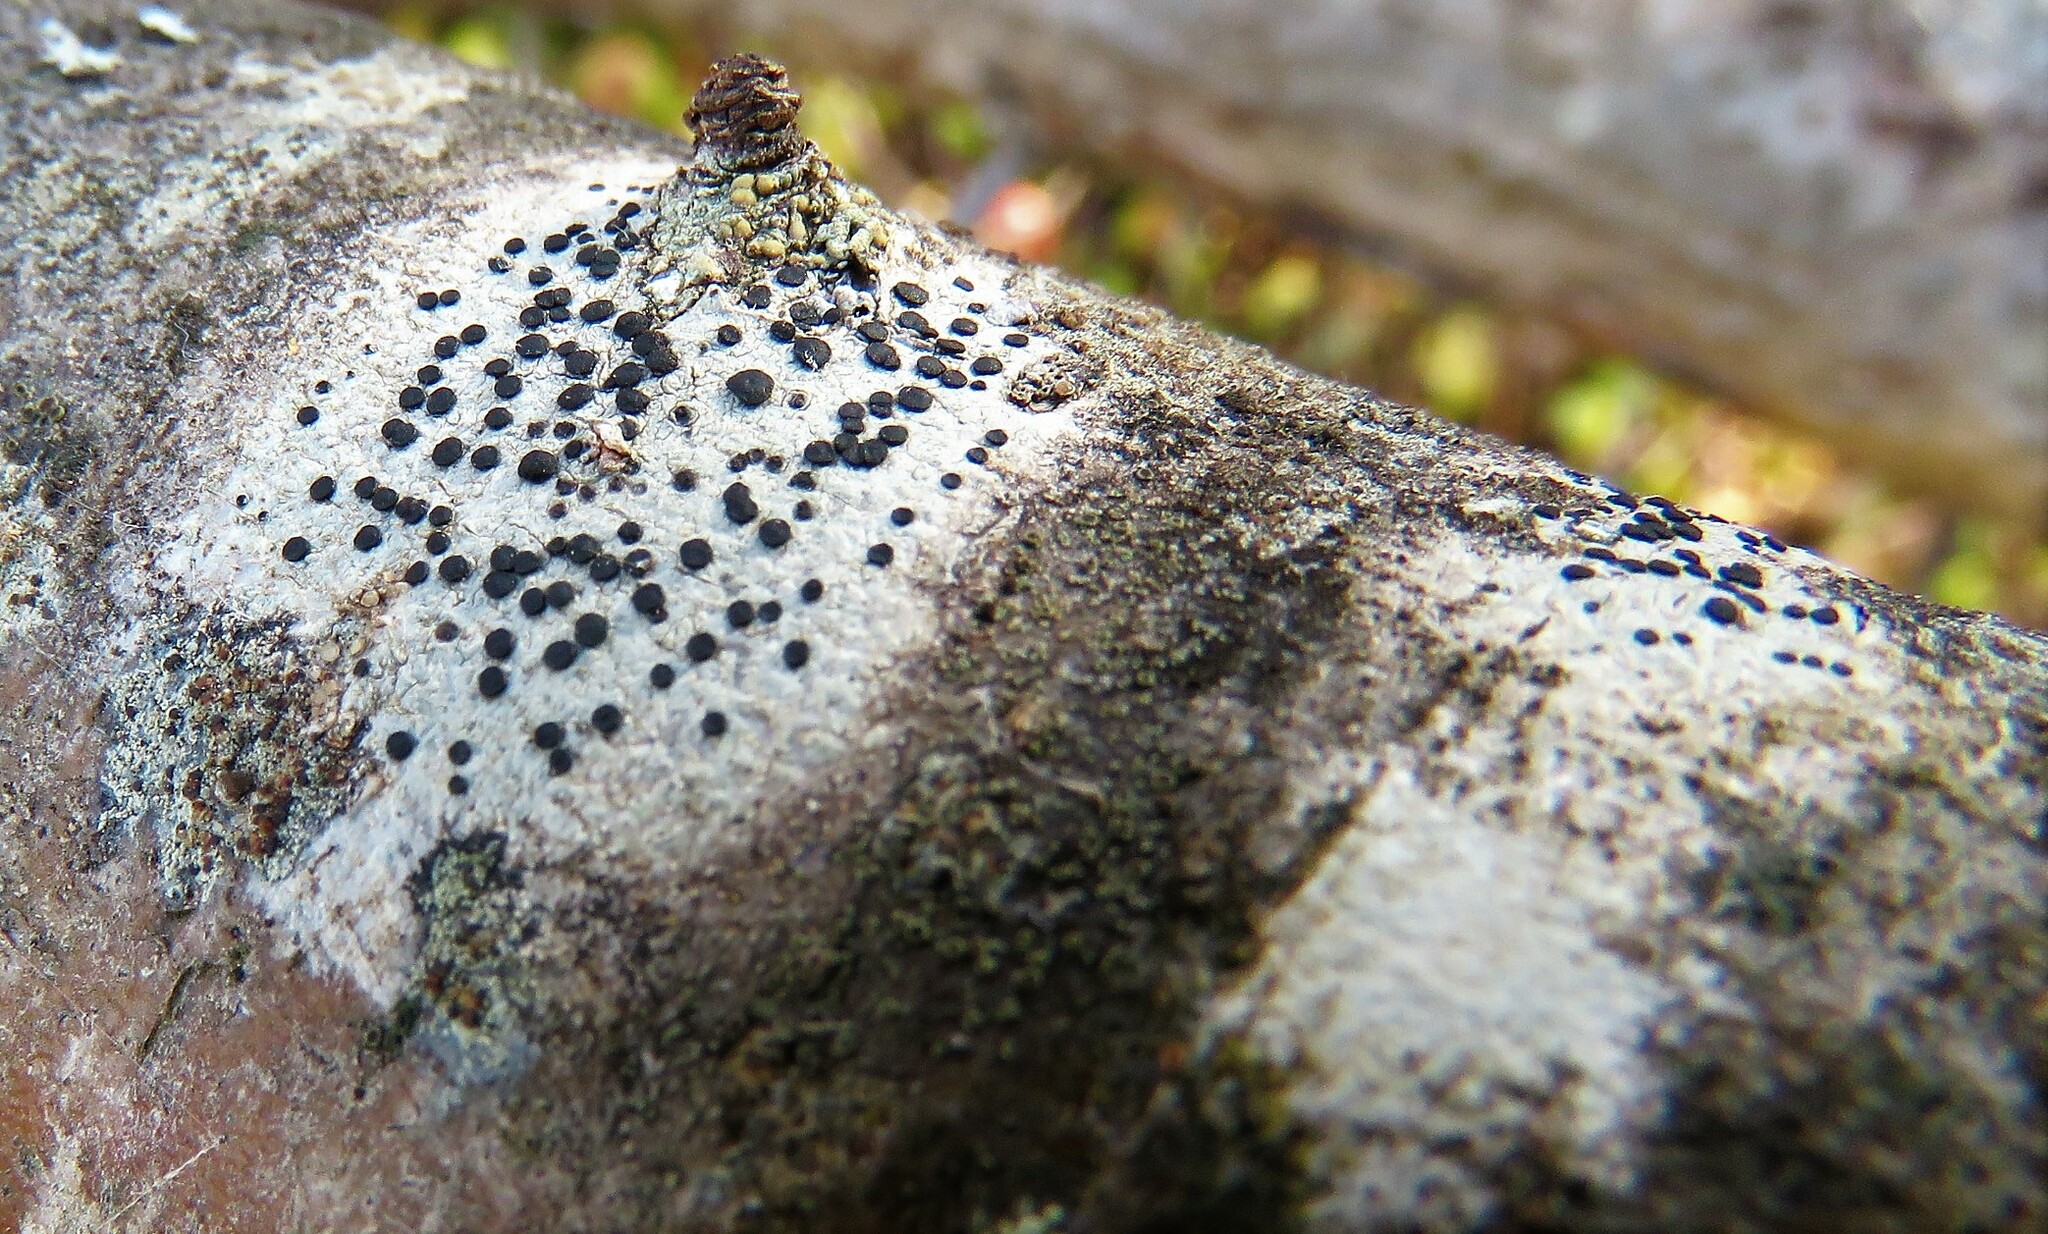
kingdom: Fungi
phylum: Ascomycota
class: Lecanoromycetes
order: Caliciales
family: Caliciaceae
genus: Buellia
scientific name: Buellia erubescens
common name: Common button lichen
